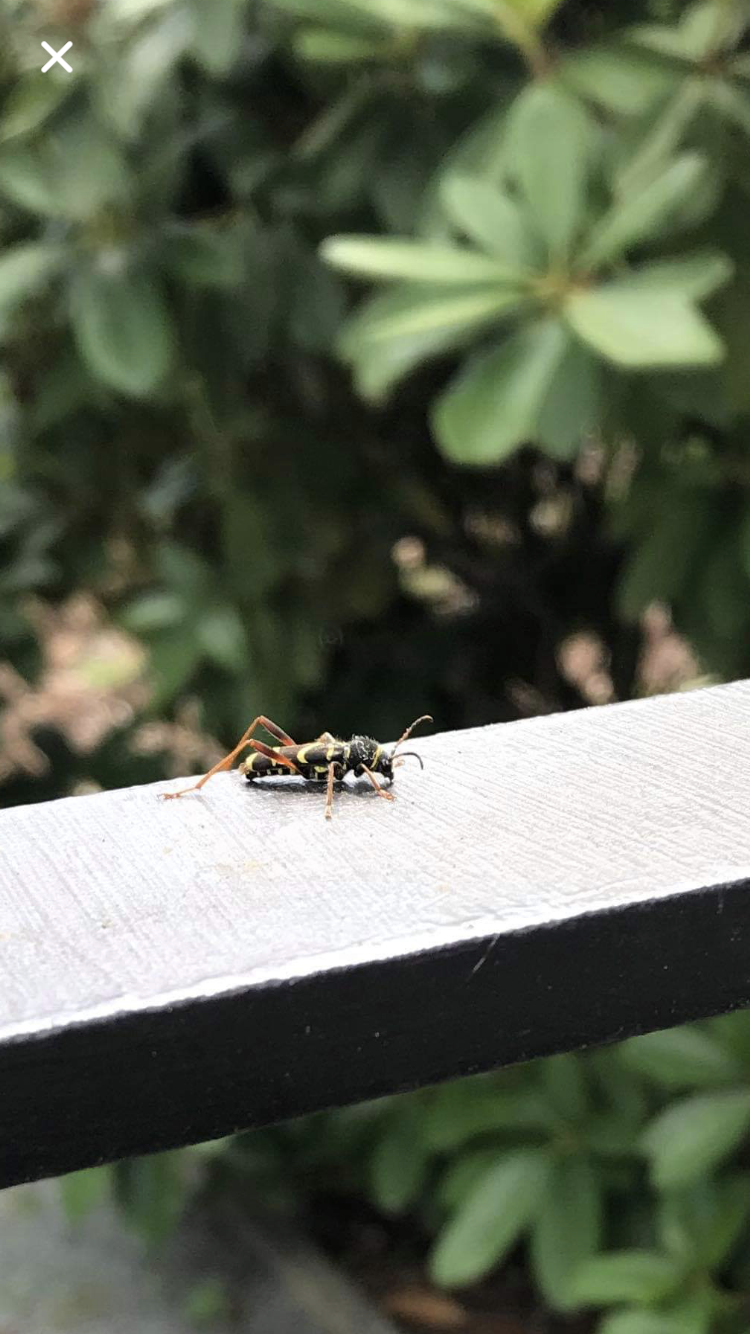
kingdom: Animalia
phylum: Arthropoda
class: Insecta
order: Coleoptera
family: Cerambycidae
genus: Clytus
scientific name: Clytus arietis
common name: Wasp beetle
